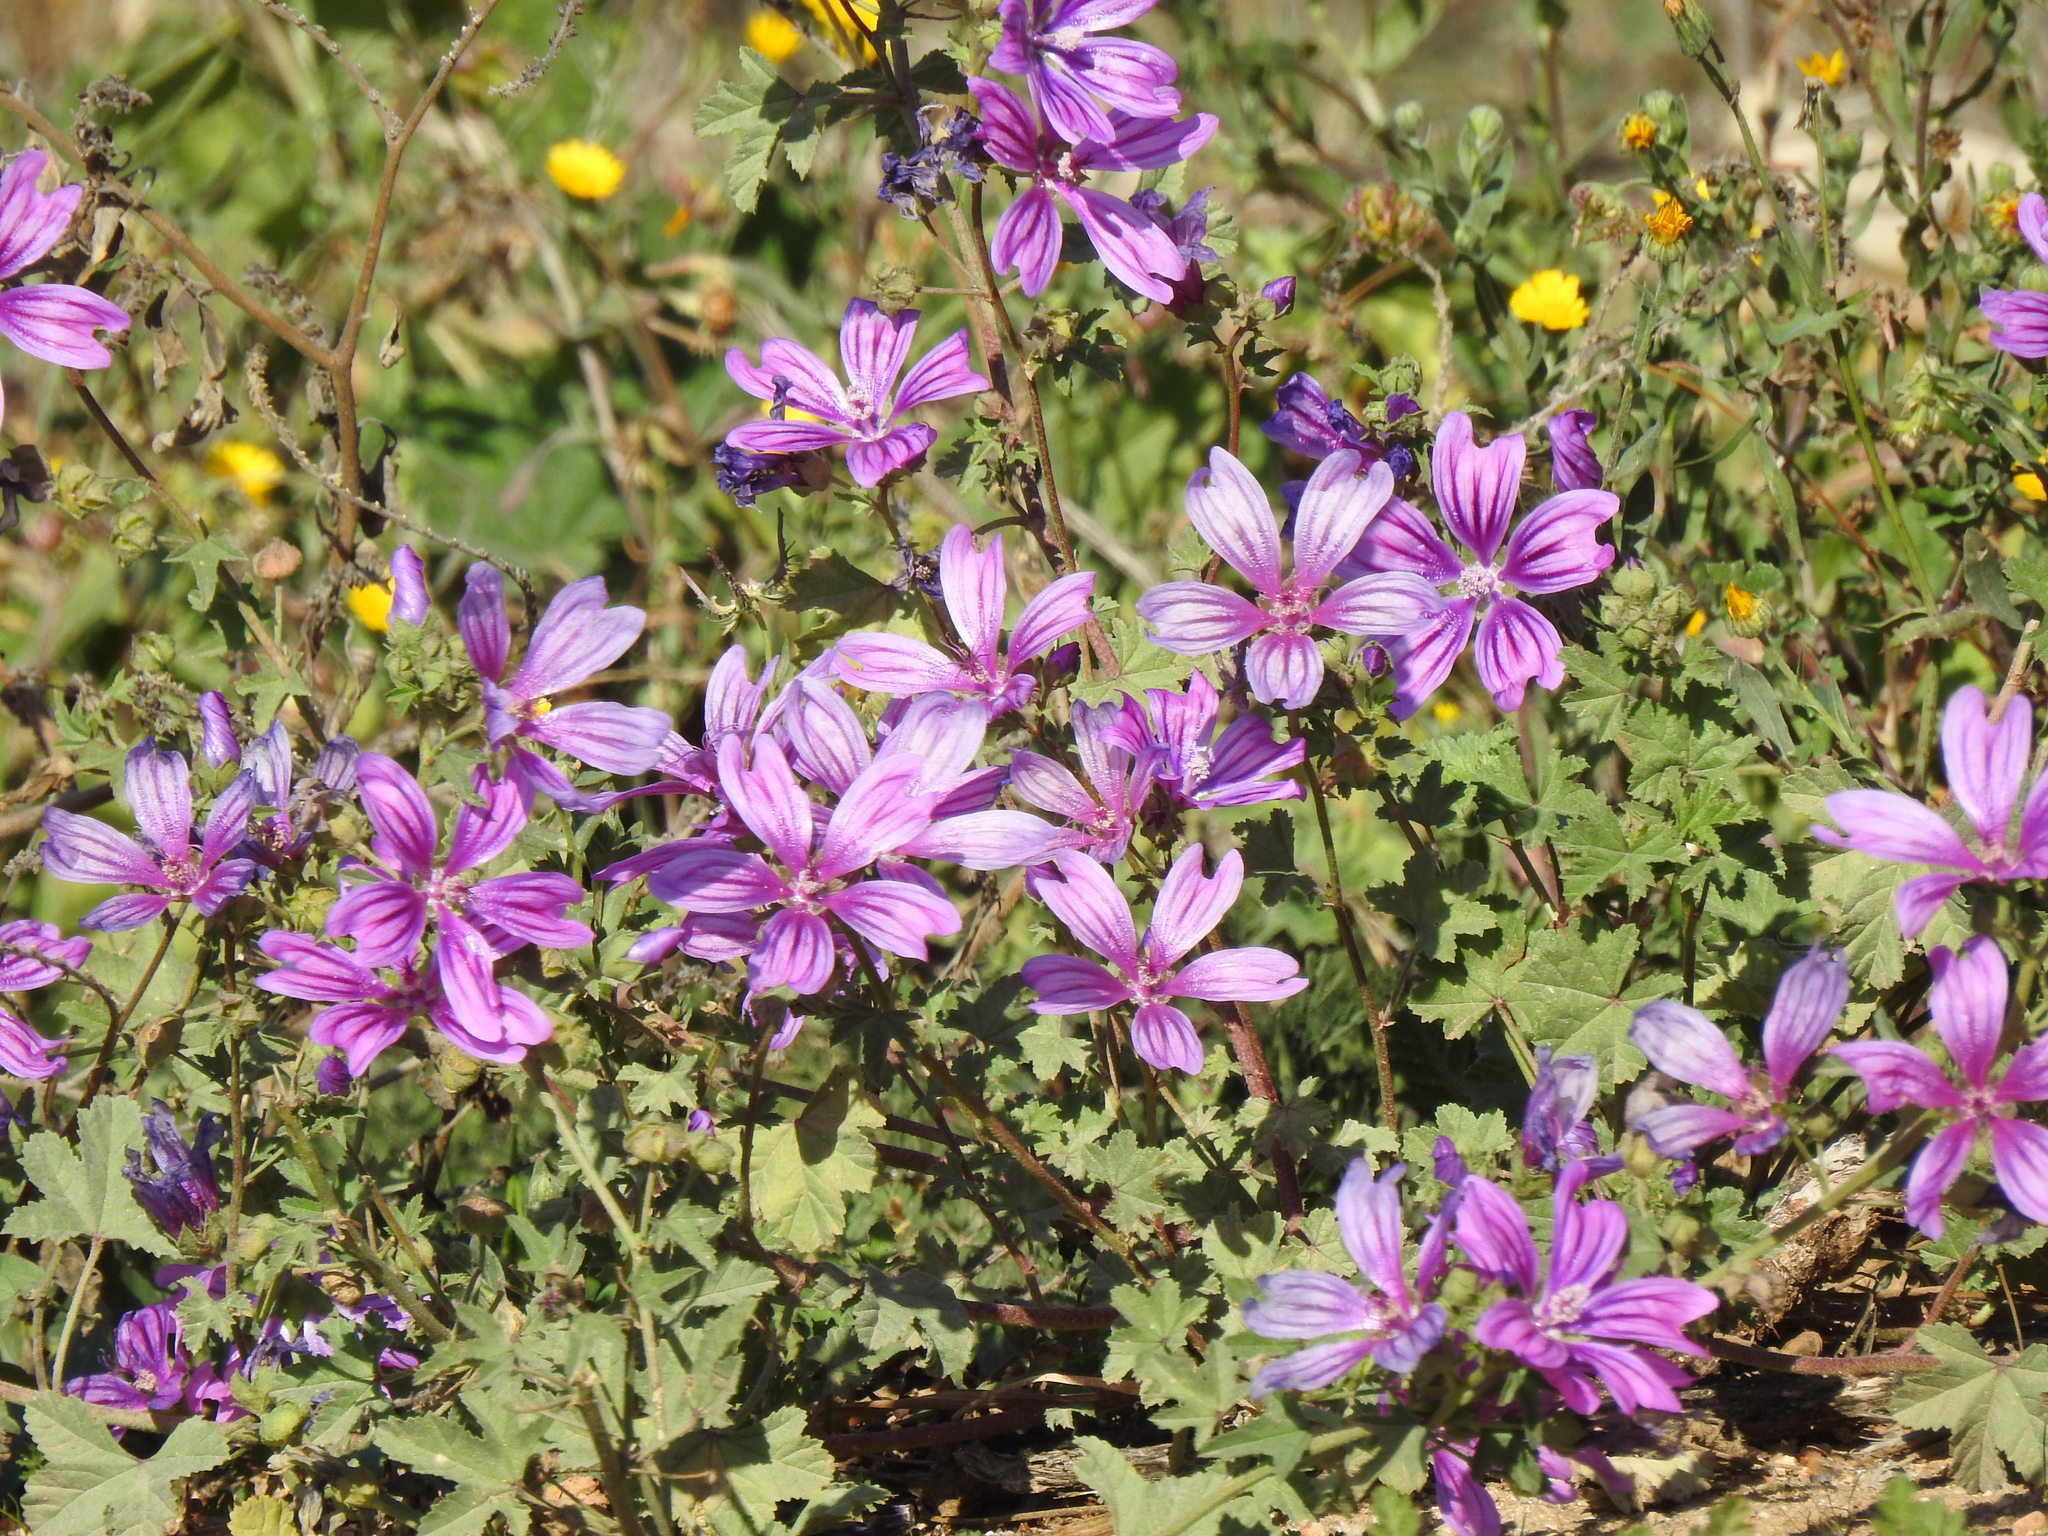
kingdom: Plantae
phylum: Tracheophyta
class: Magnoliopsida
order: Malvales
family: Malvaceae
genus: Malva
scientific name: Malva sylvestris
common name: Common mallow
